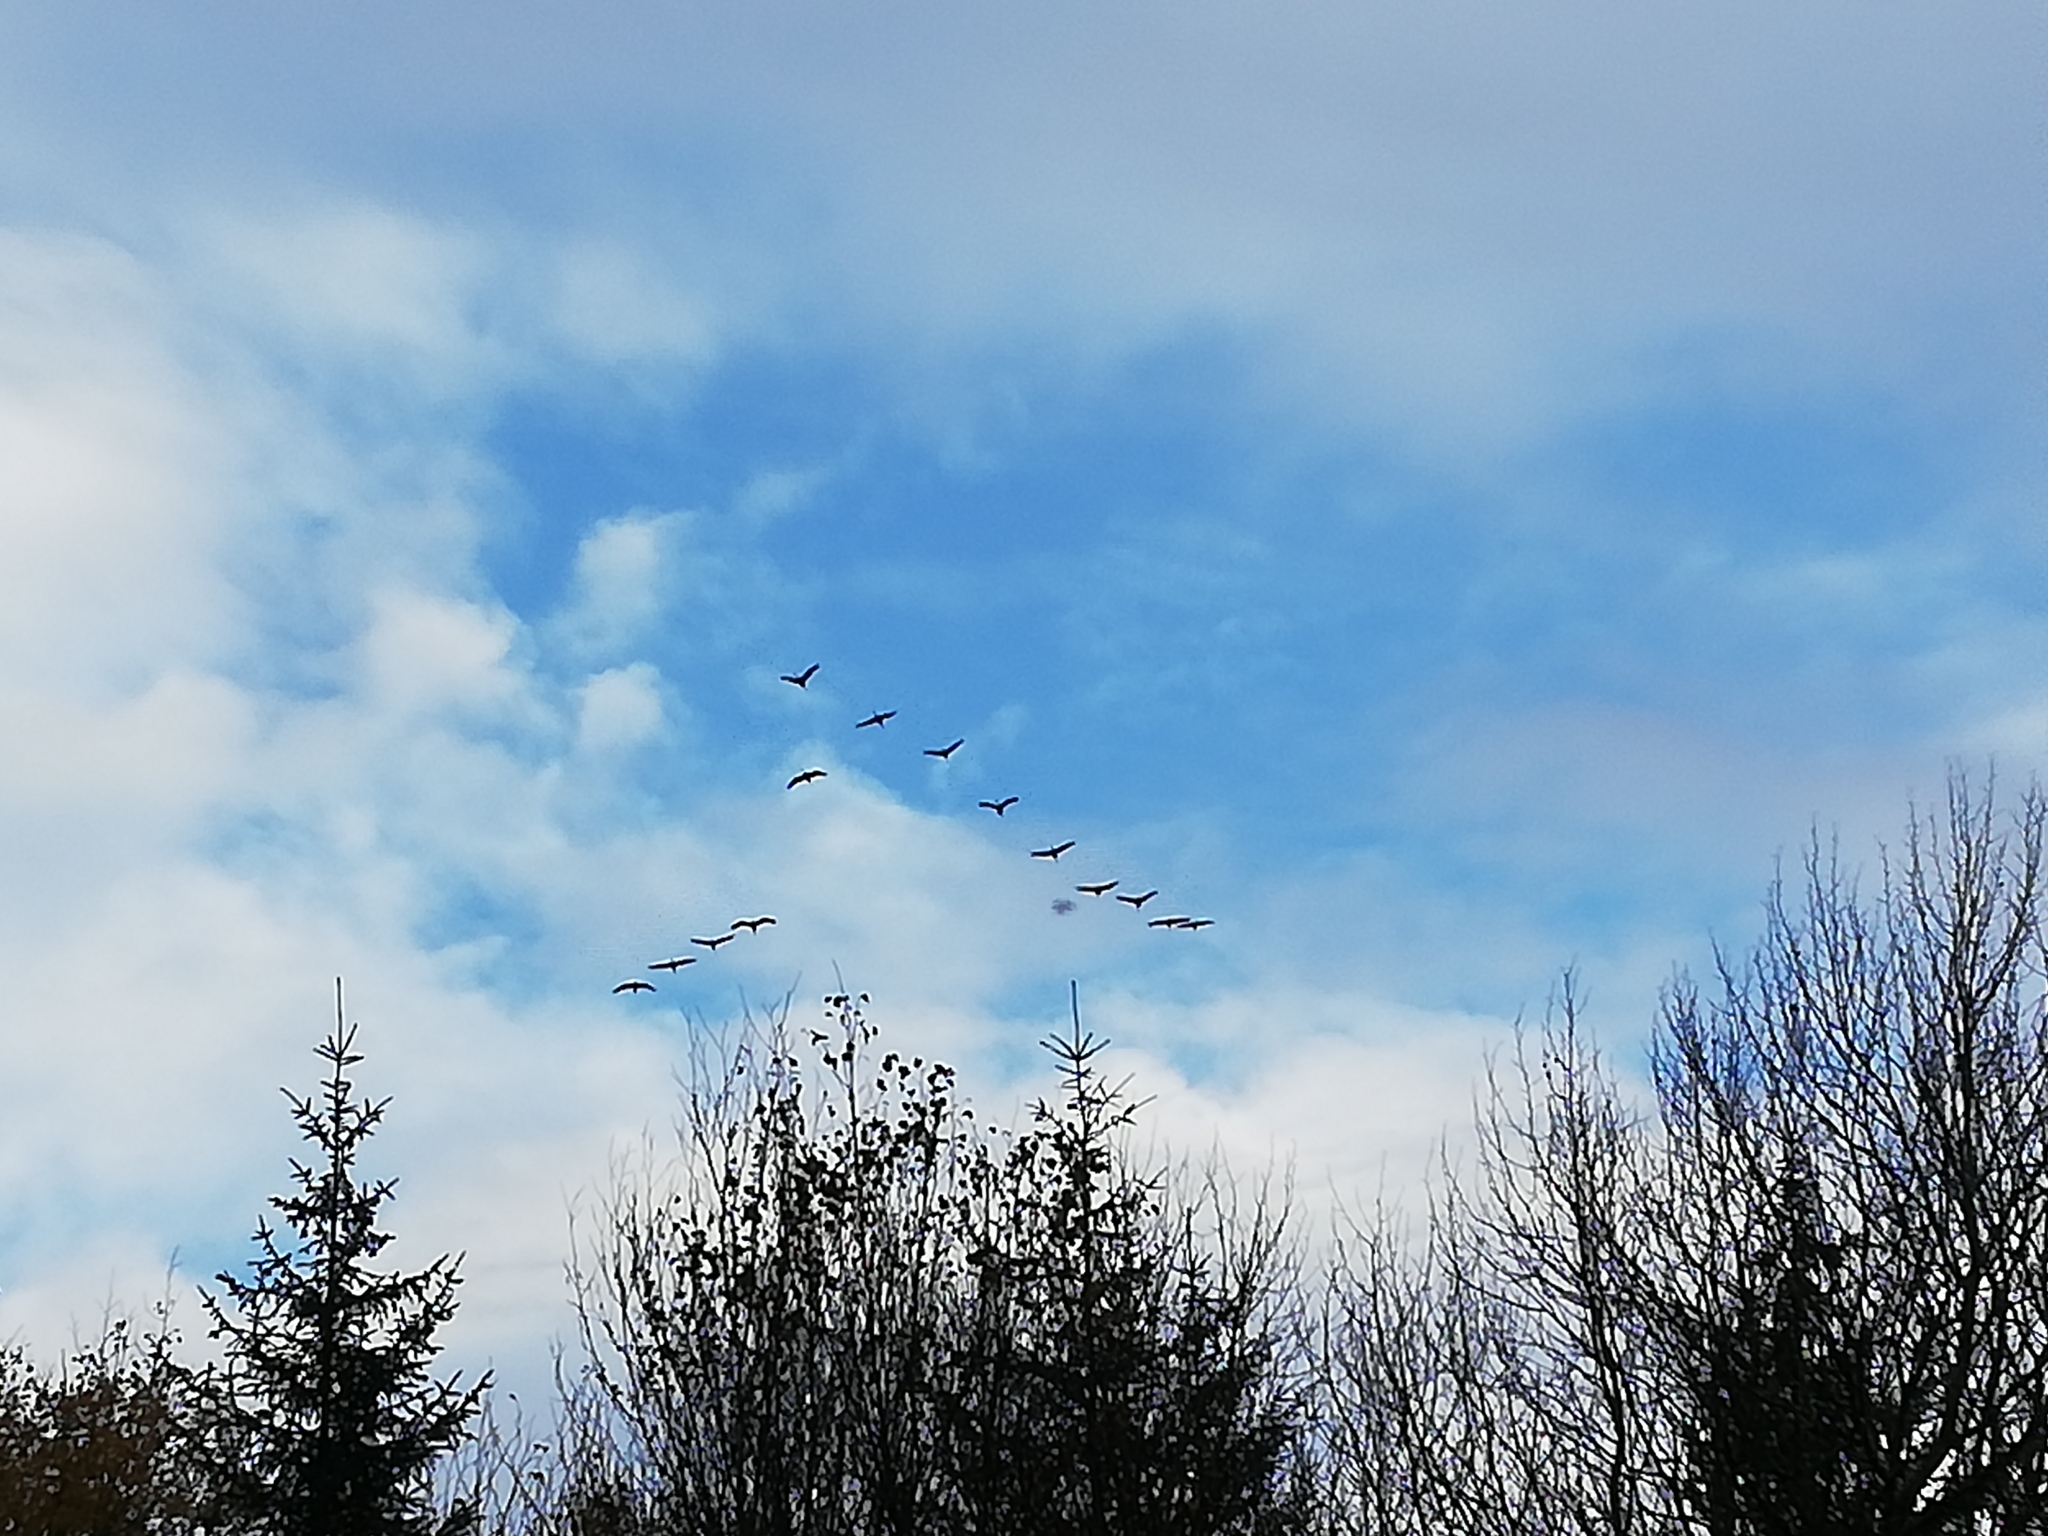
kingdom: Animalia
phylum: Chordata
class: Aves
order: Gruiformes
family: Gruidae
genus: Grus
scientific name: Grus grus
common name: Common crane
